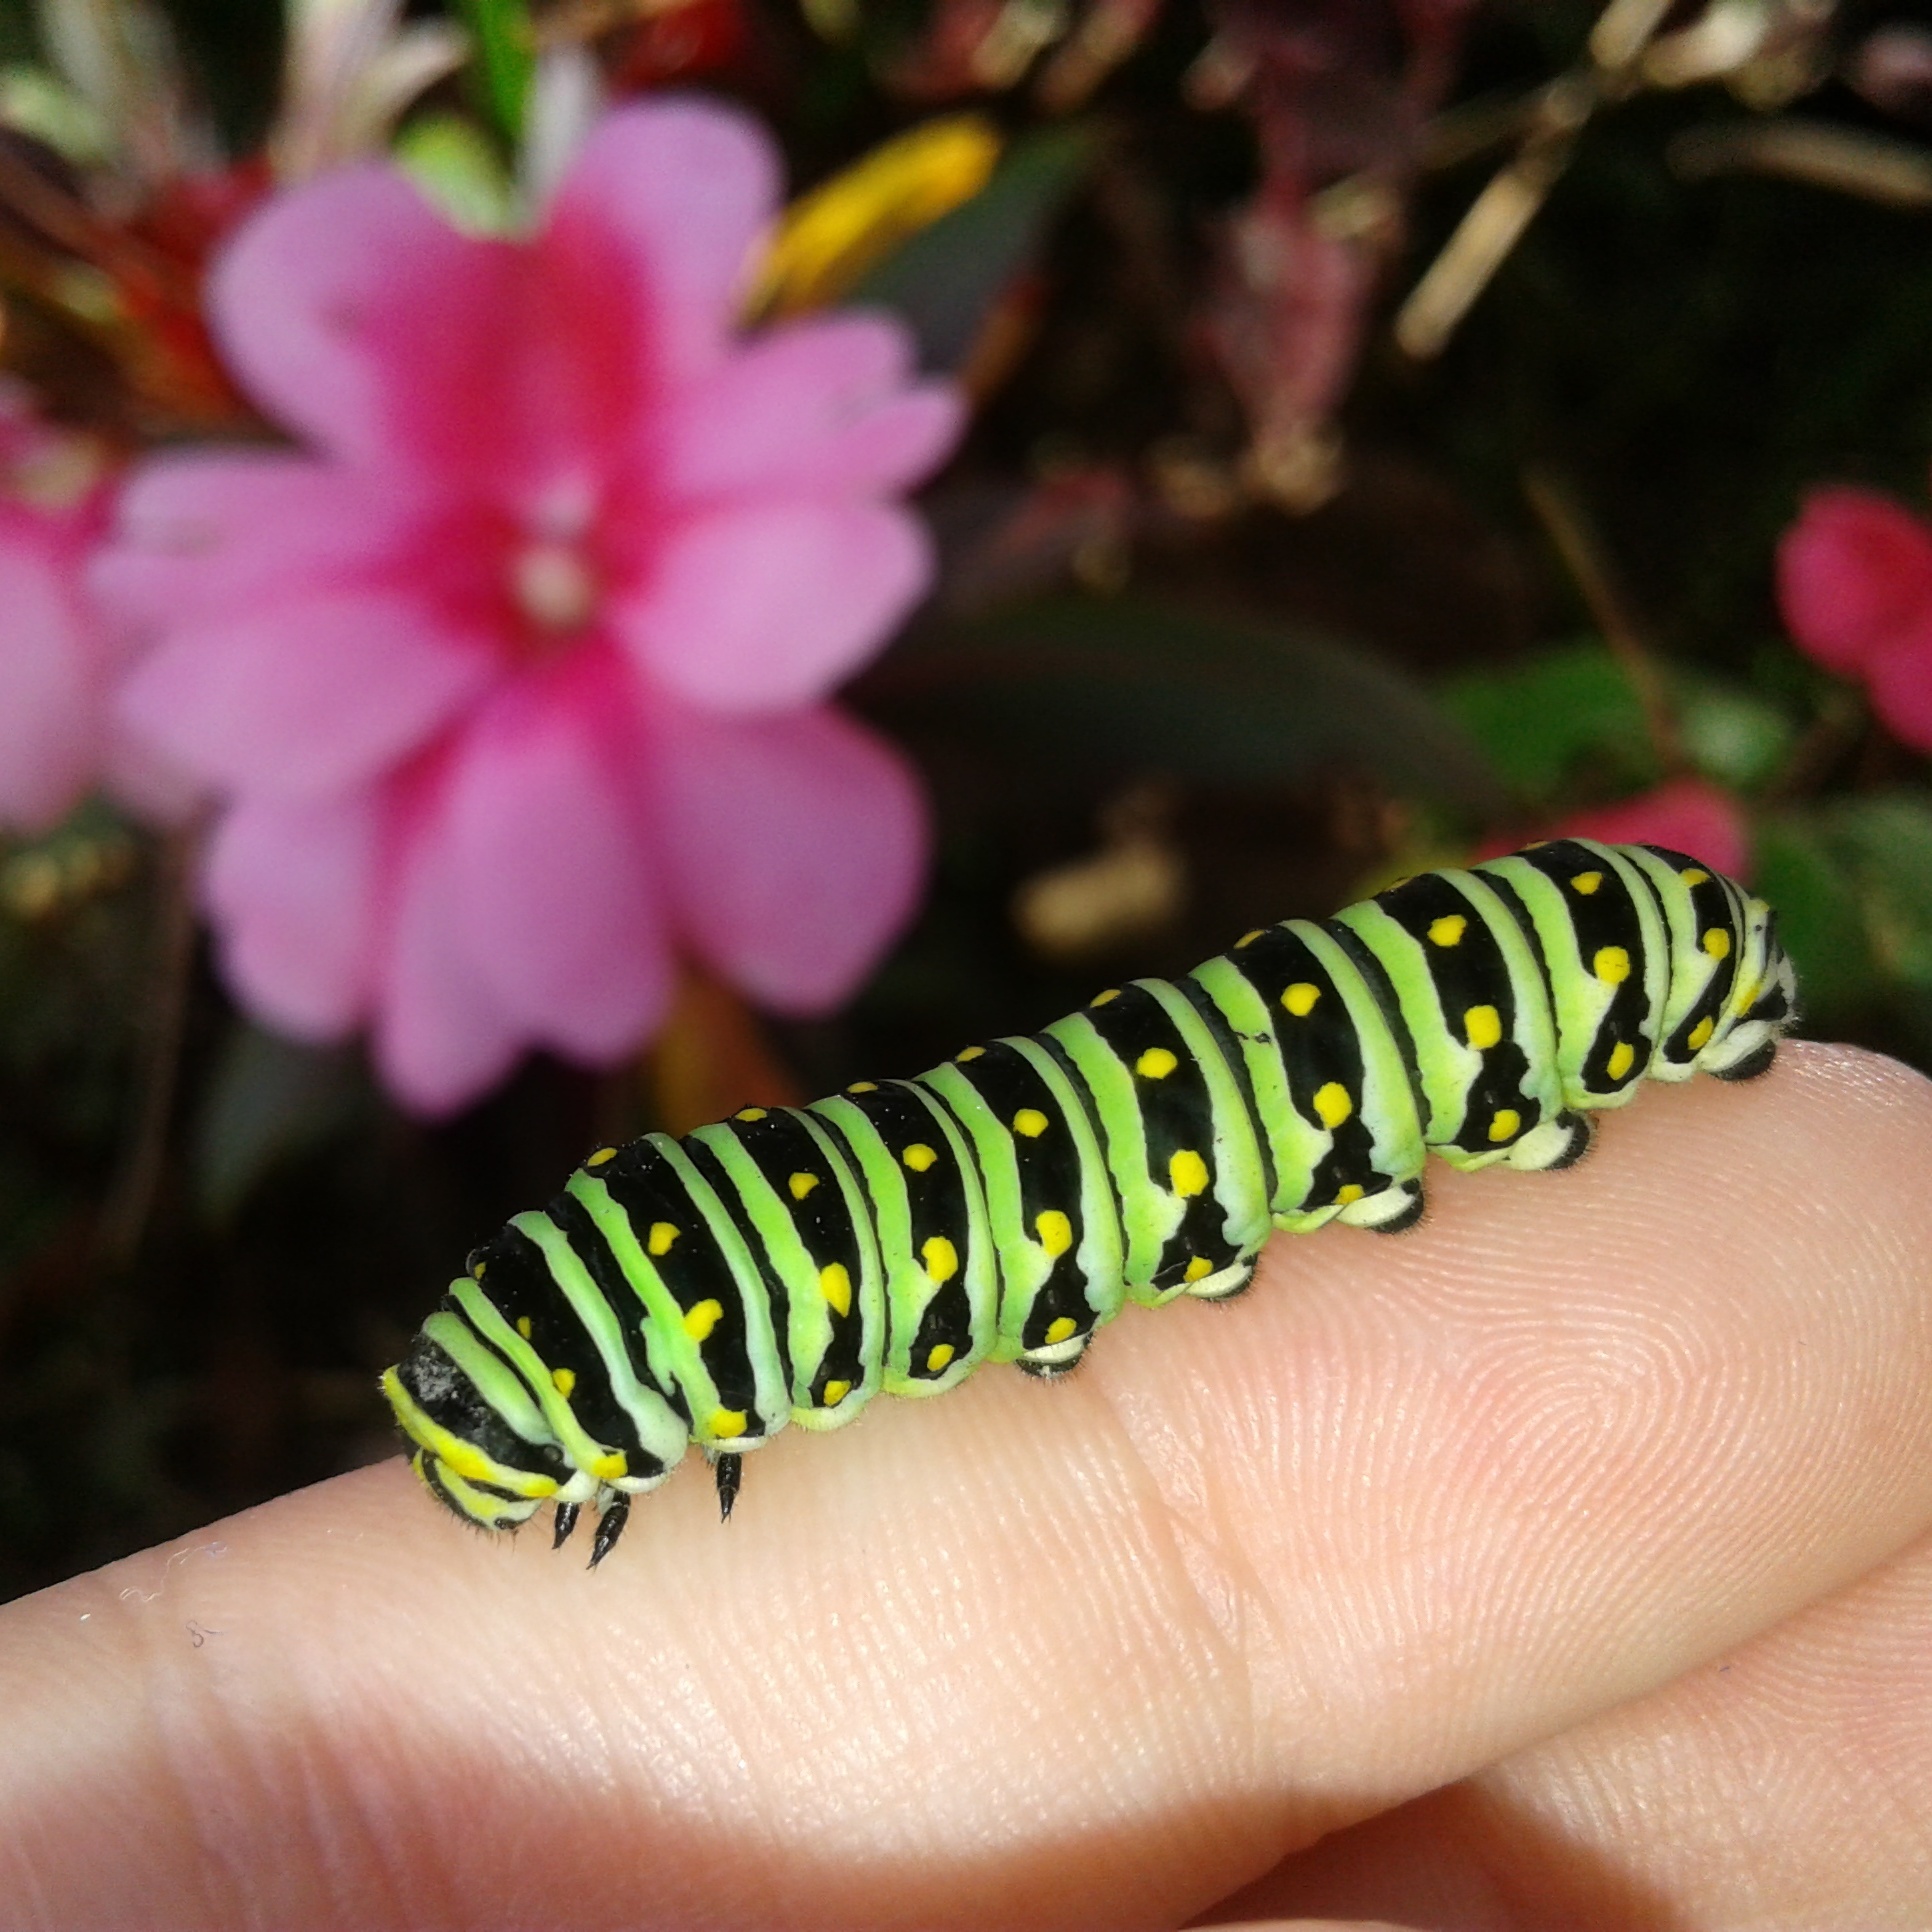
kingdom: Animalia
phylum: Arthropoda
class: Insecta
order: Lepidoptera
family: Papilionidae
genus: Papilio
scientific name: Papilio polyxenes
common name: Black swallowtail
